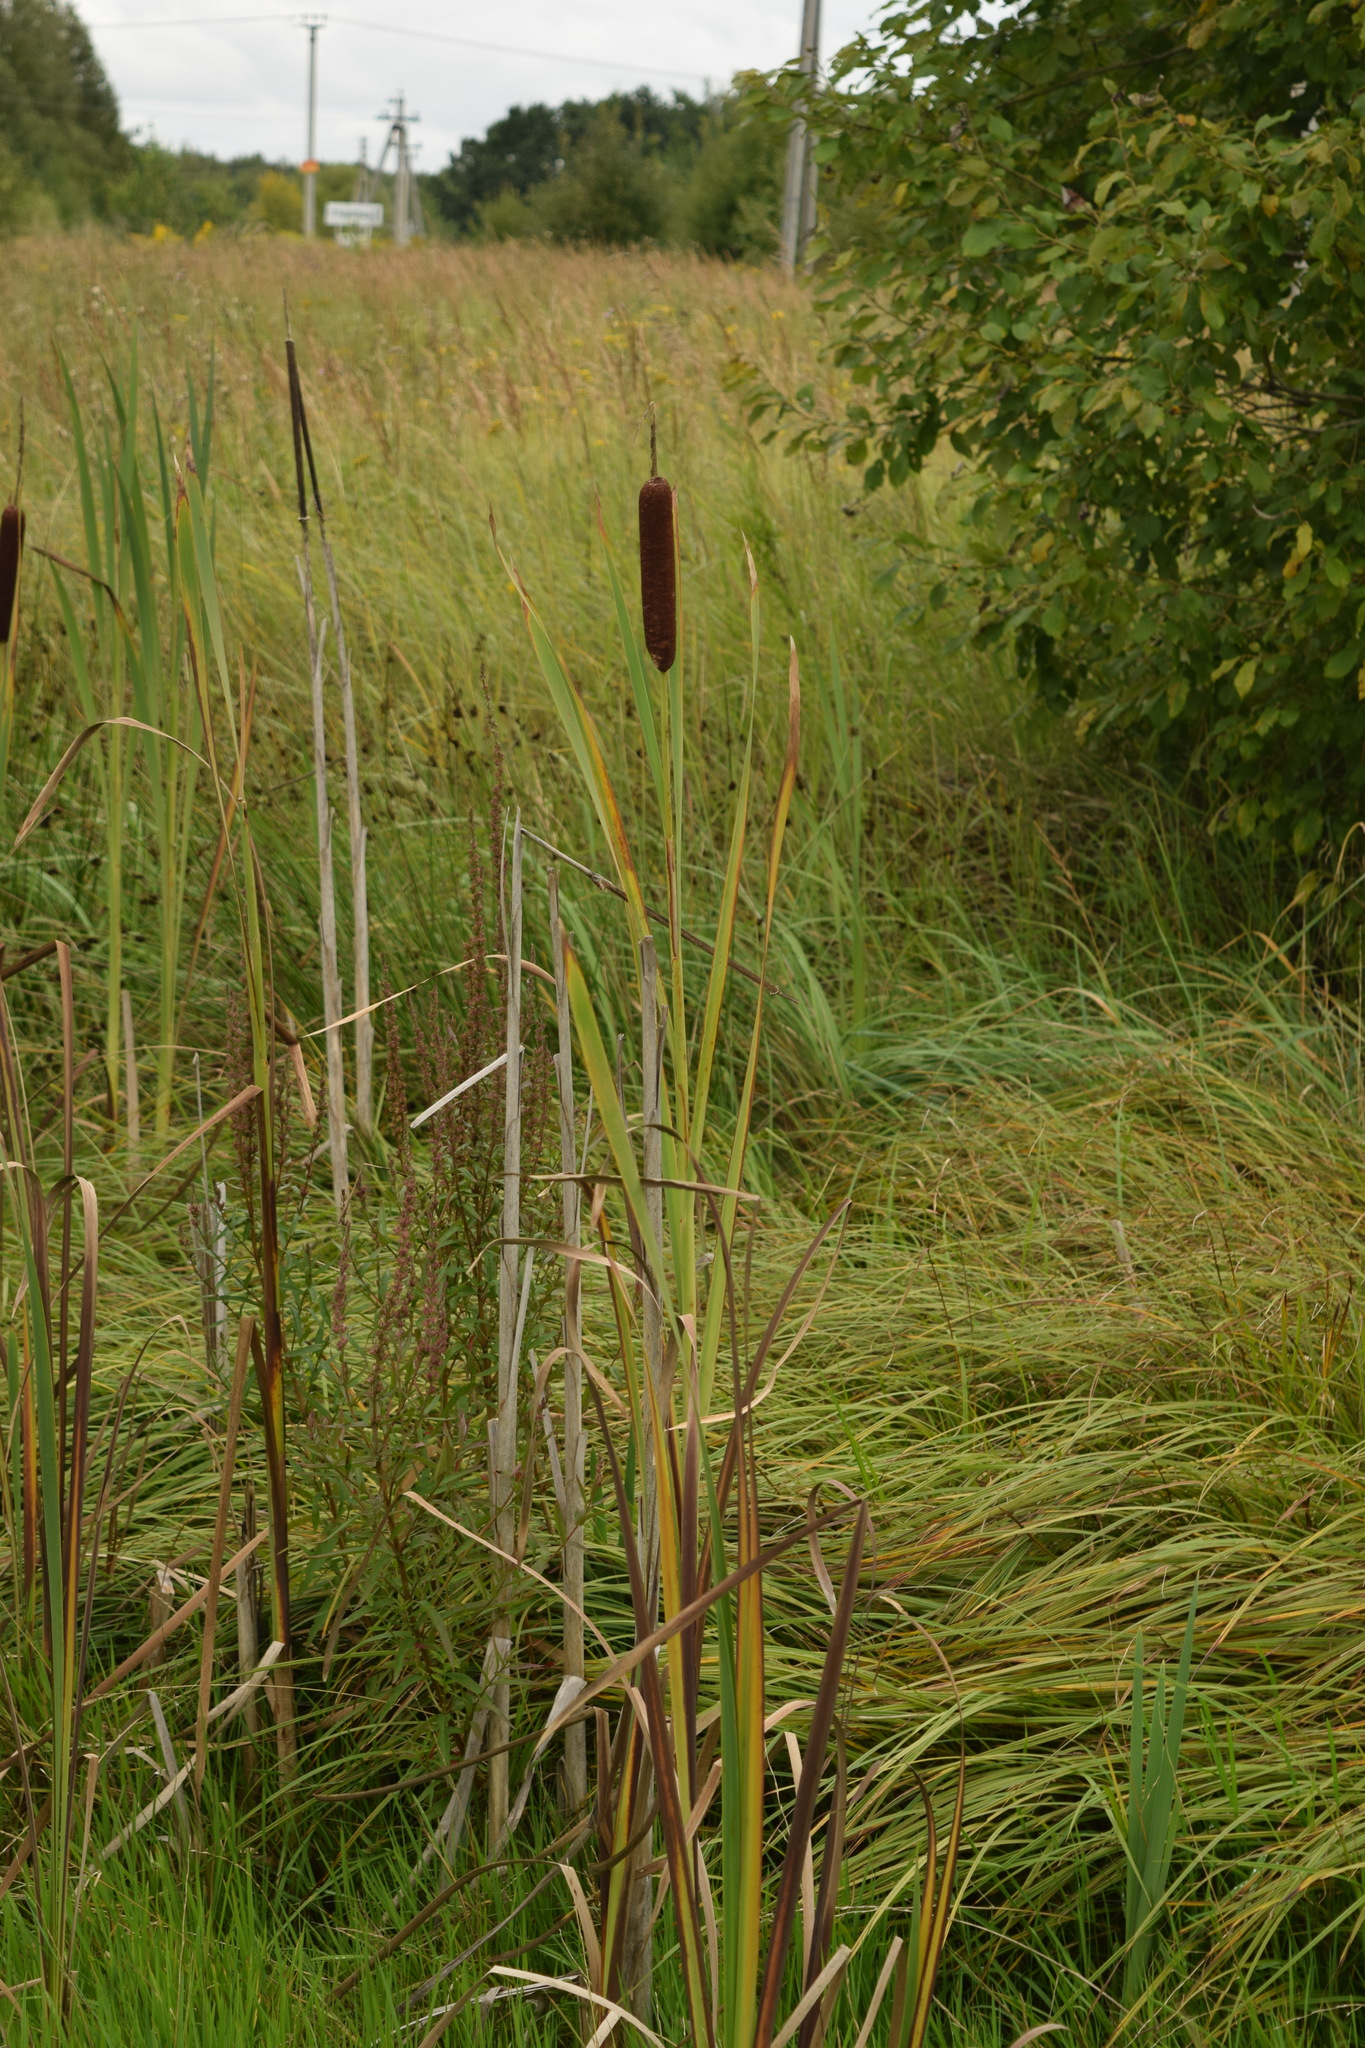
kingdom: Plantae
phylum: Tracheophyta
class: Liliopsida
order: Poales
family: Typhaceae
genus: Typha
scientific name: Typha latifolia
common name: Broadleaf cattail
